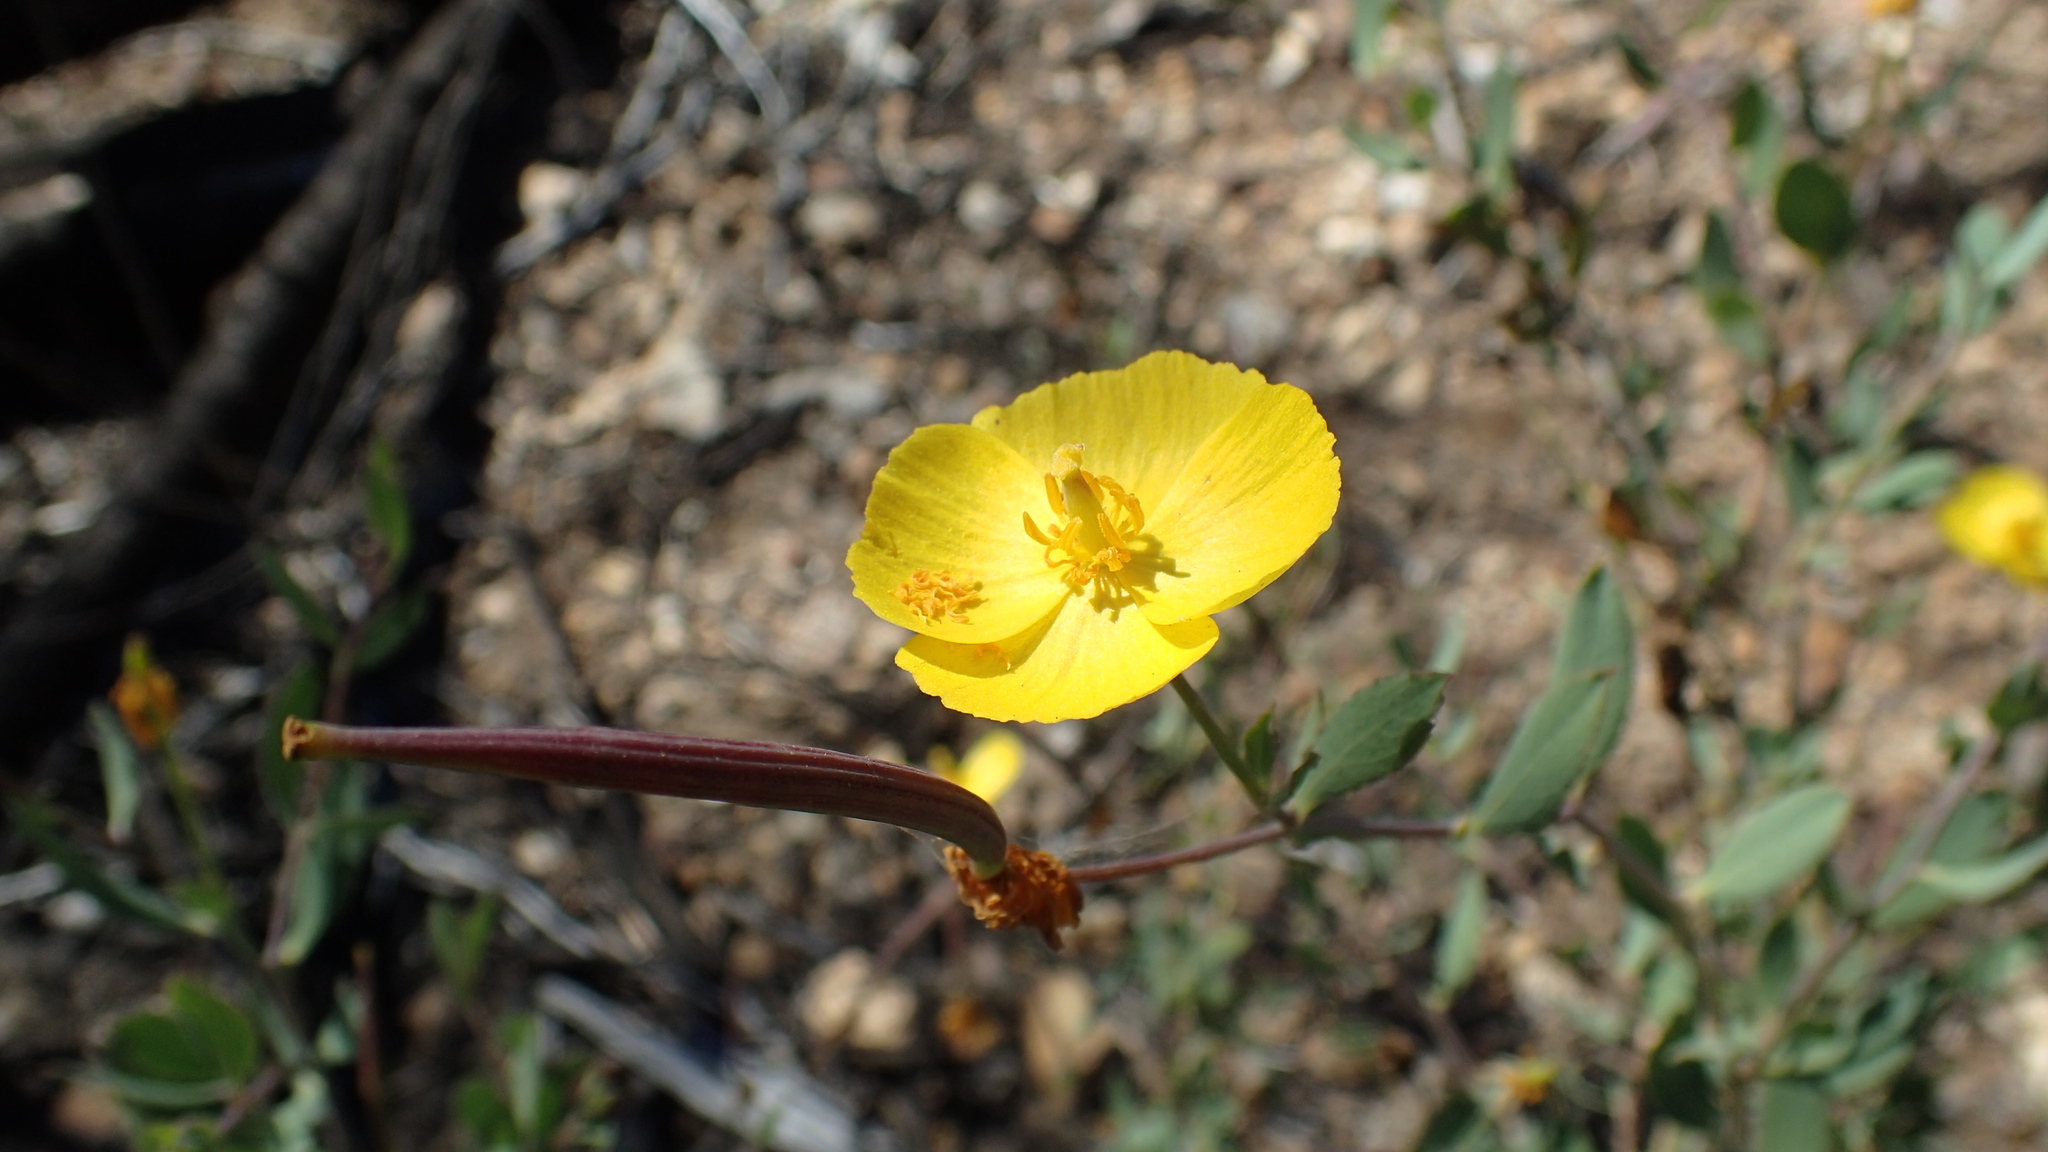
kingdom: Plantae
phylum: Tracheophyta
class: Magnoliopsida
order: Ranunculales
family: Papaveraceae
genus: Dendromecon
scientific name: Dendromecon rigida
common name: Tree poppy
